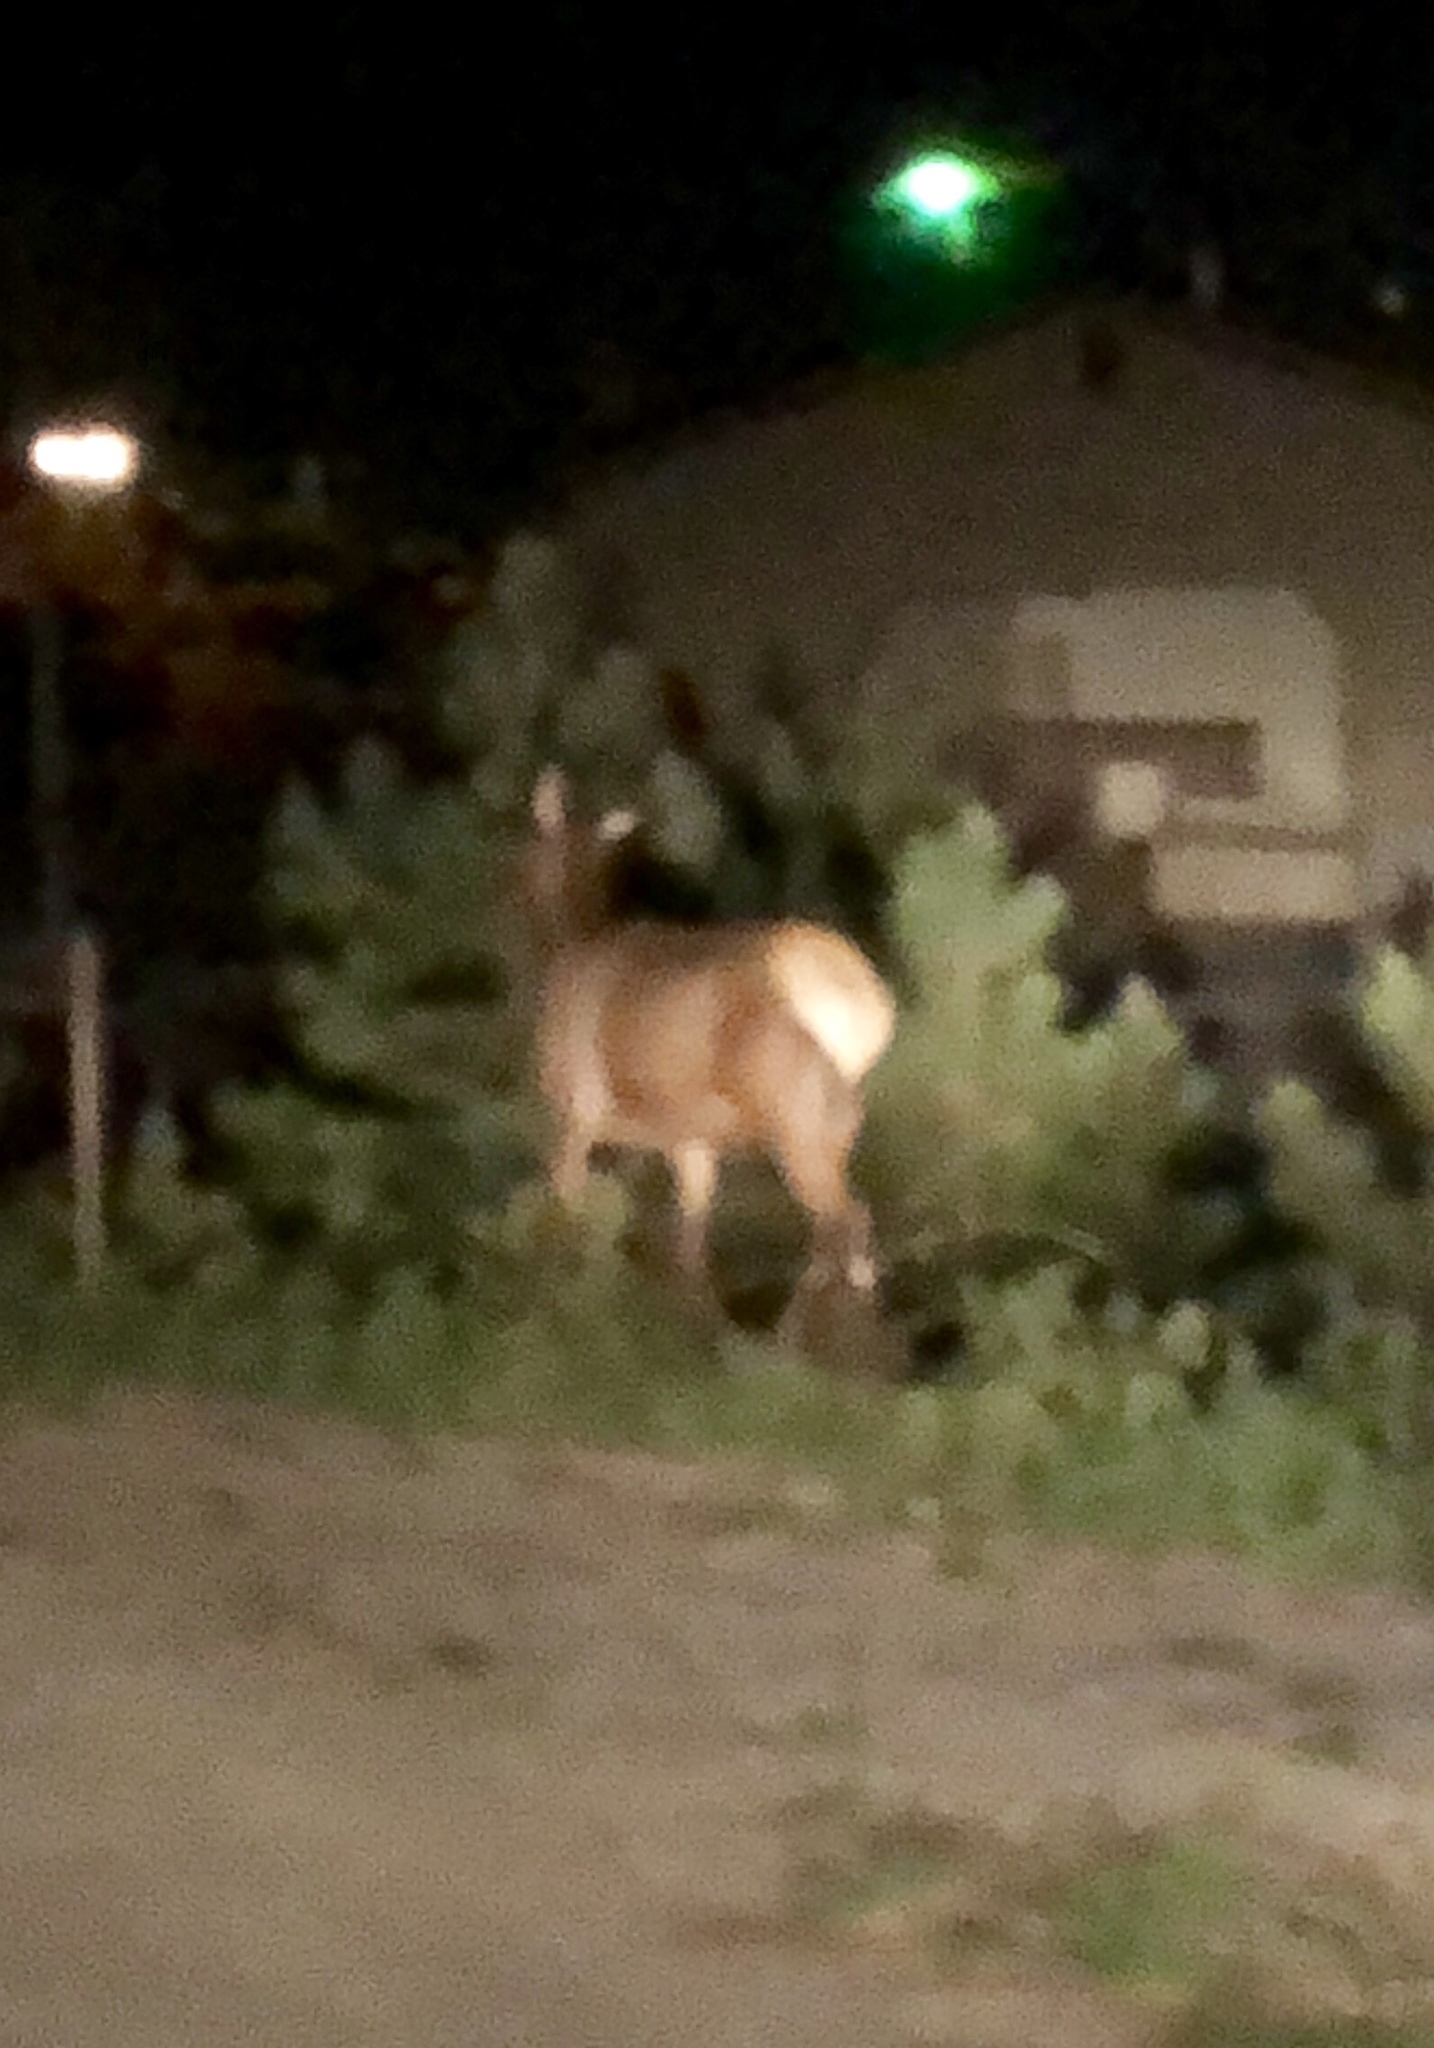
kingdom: Animalia
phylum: Chordata
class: Mammalia
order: Artiodactyla
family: Cervidae
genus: Cervus
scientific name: Cervus elaphus
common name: Red deer
